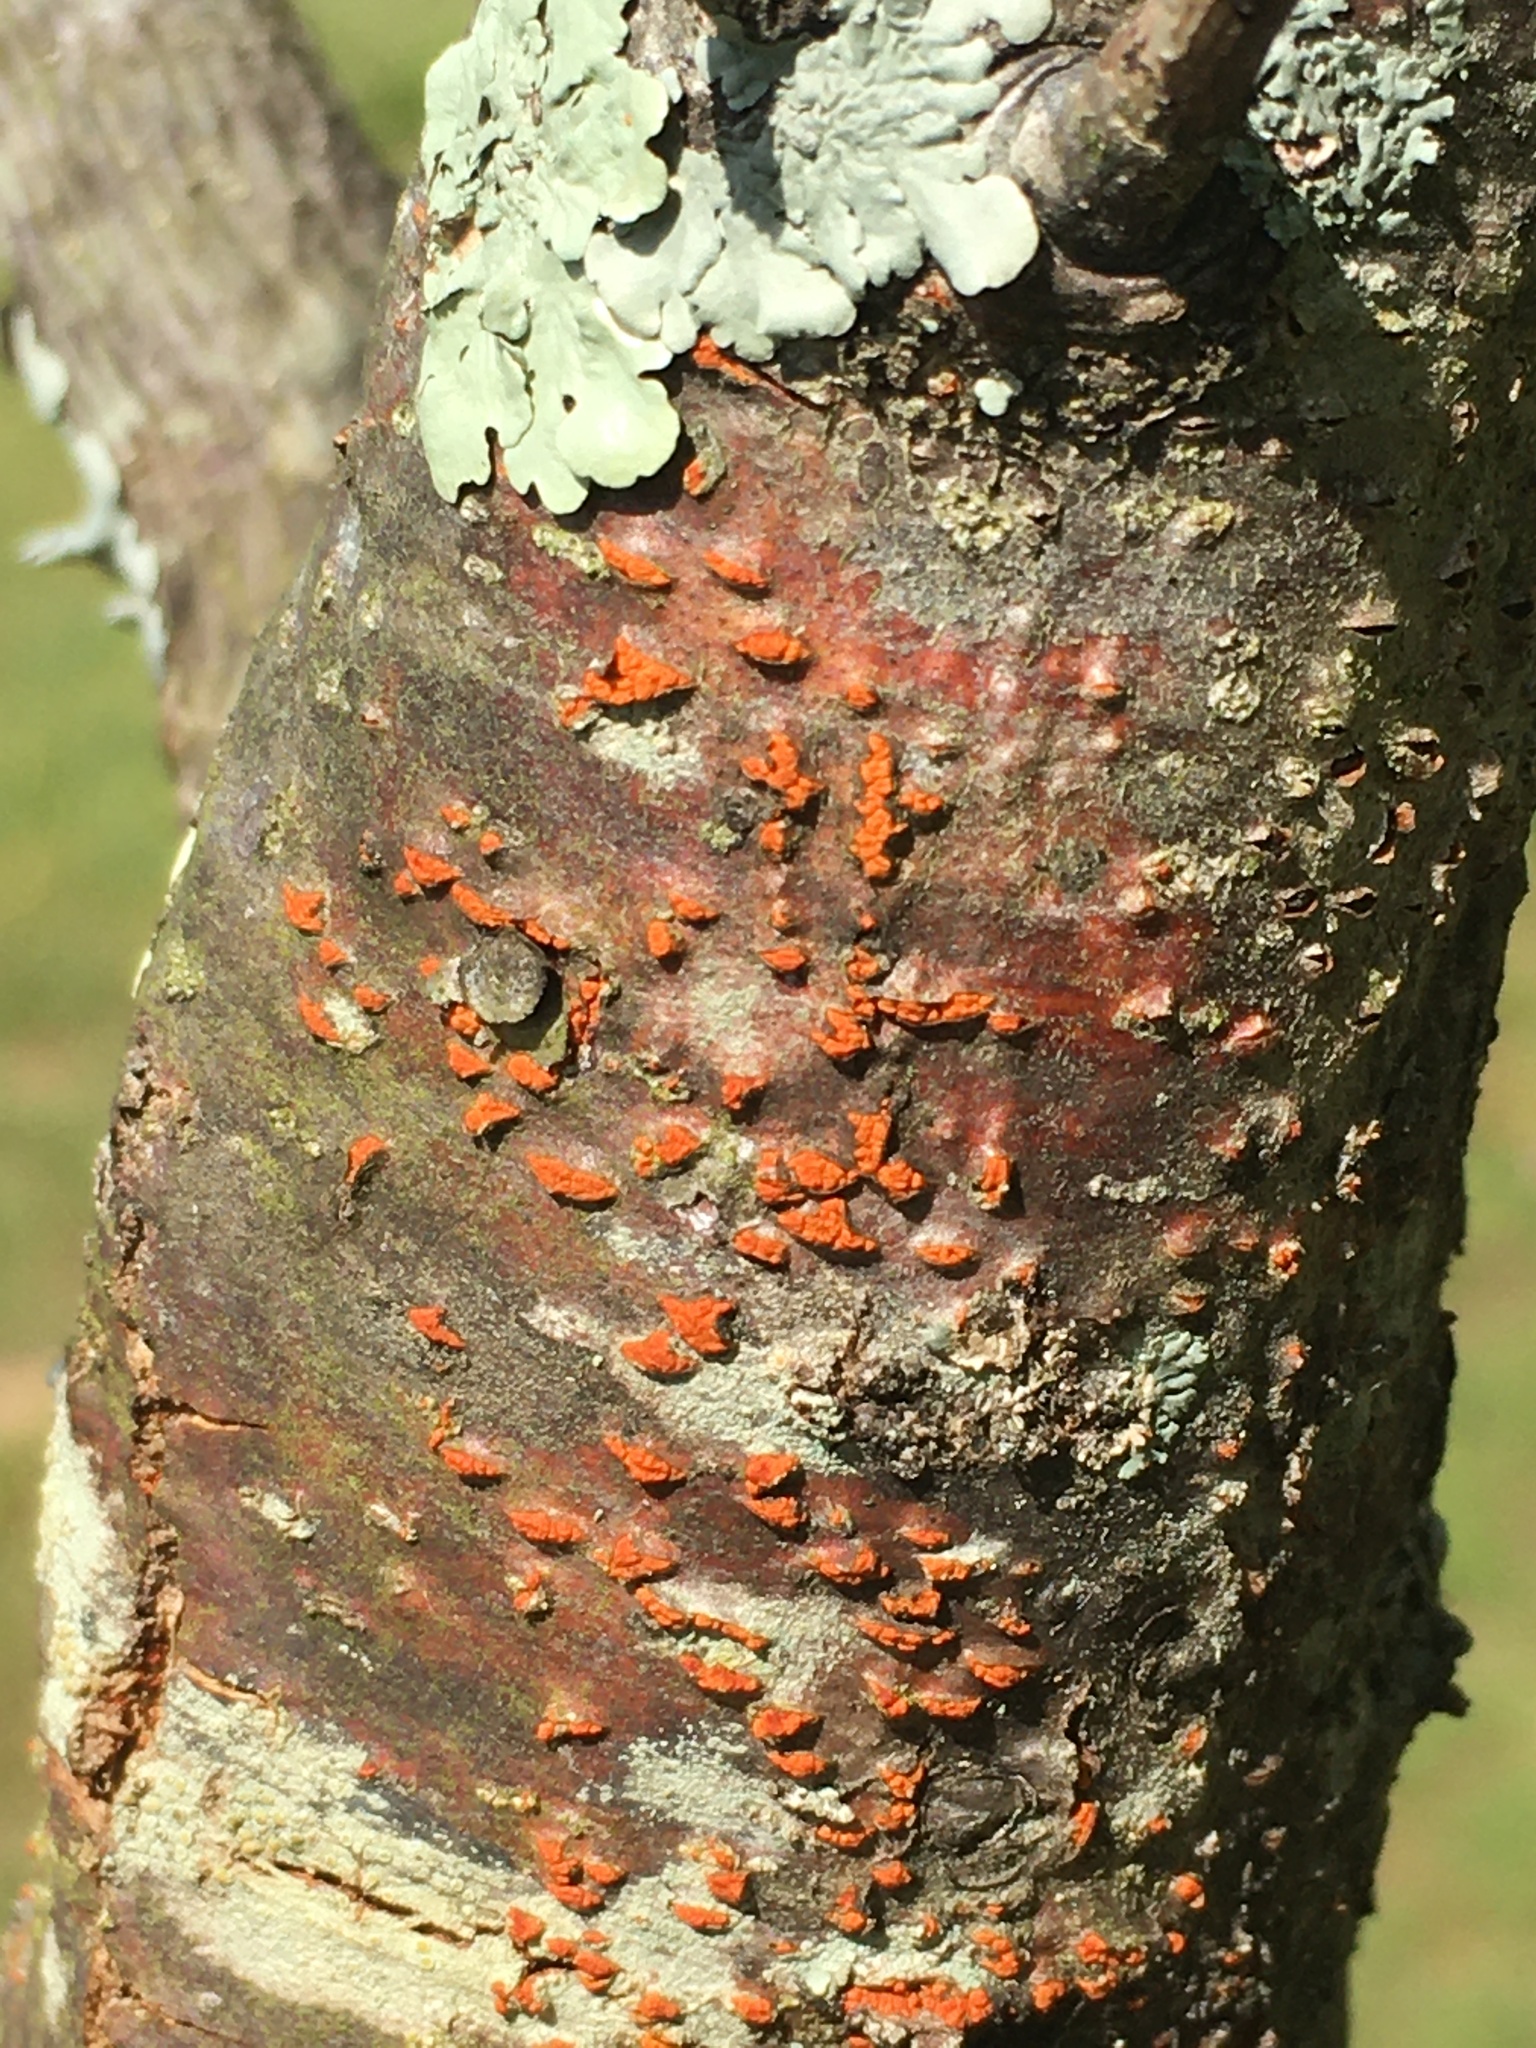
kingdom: Fungi
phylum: Ascomycota
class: Sordariomycetes
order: Diaporthales
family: Cryphonectriaceae
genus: Cryphonectria
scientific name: Cryphonectria parasitica
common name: Chestnut blight
